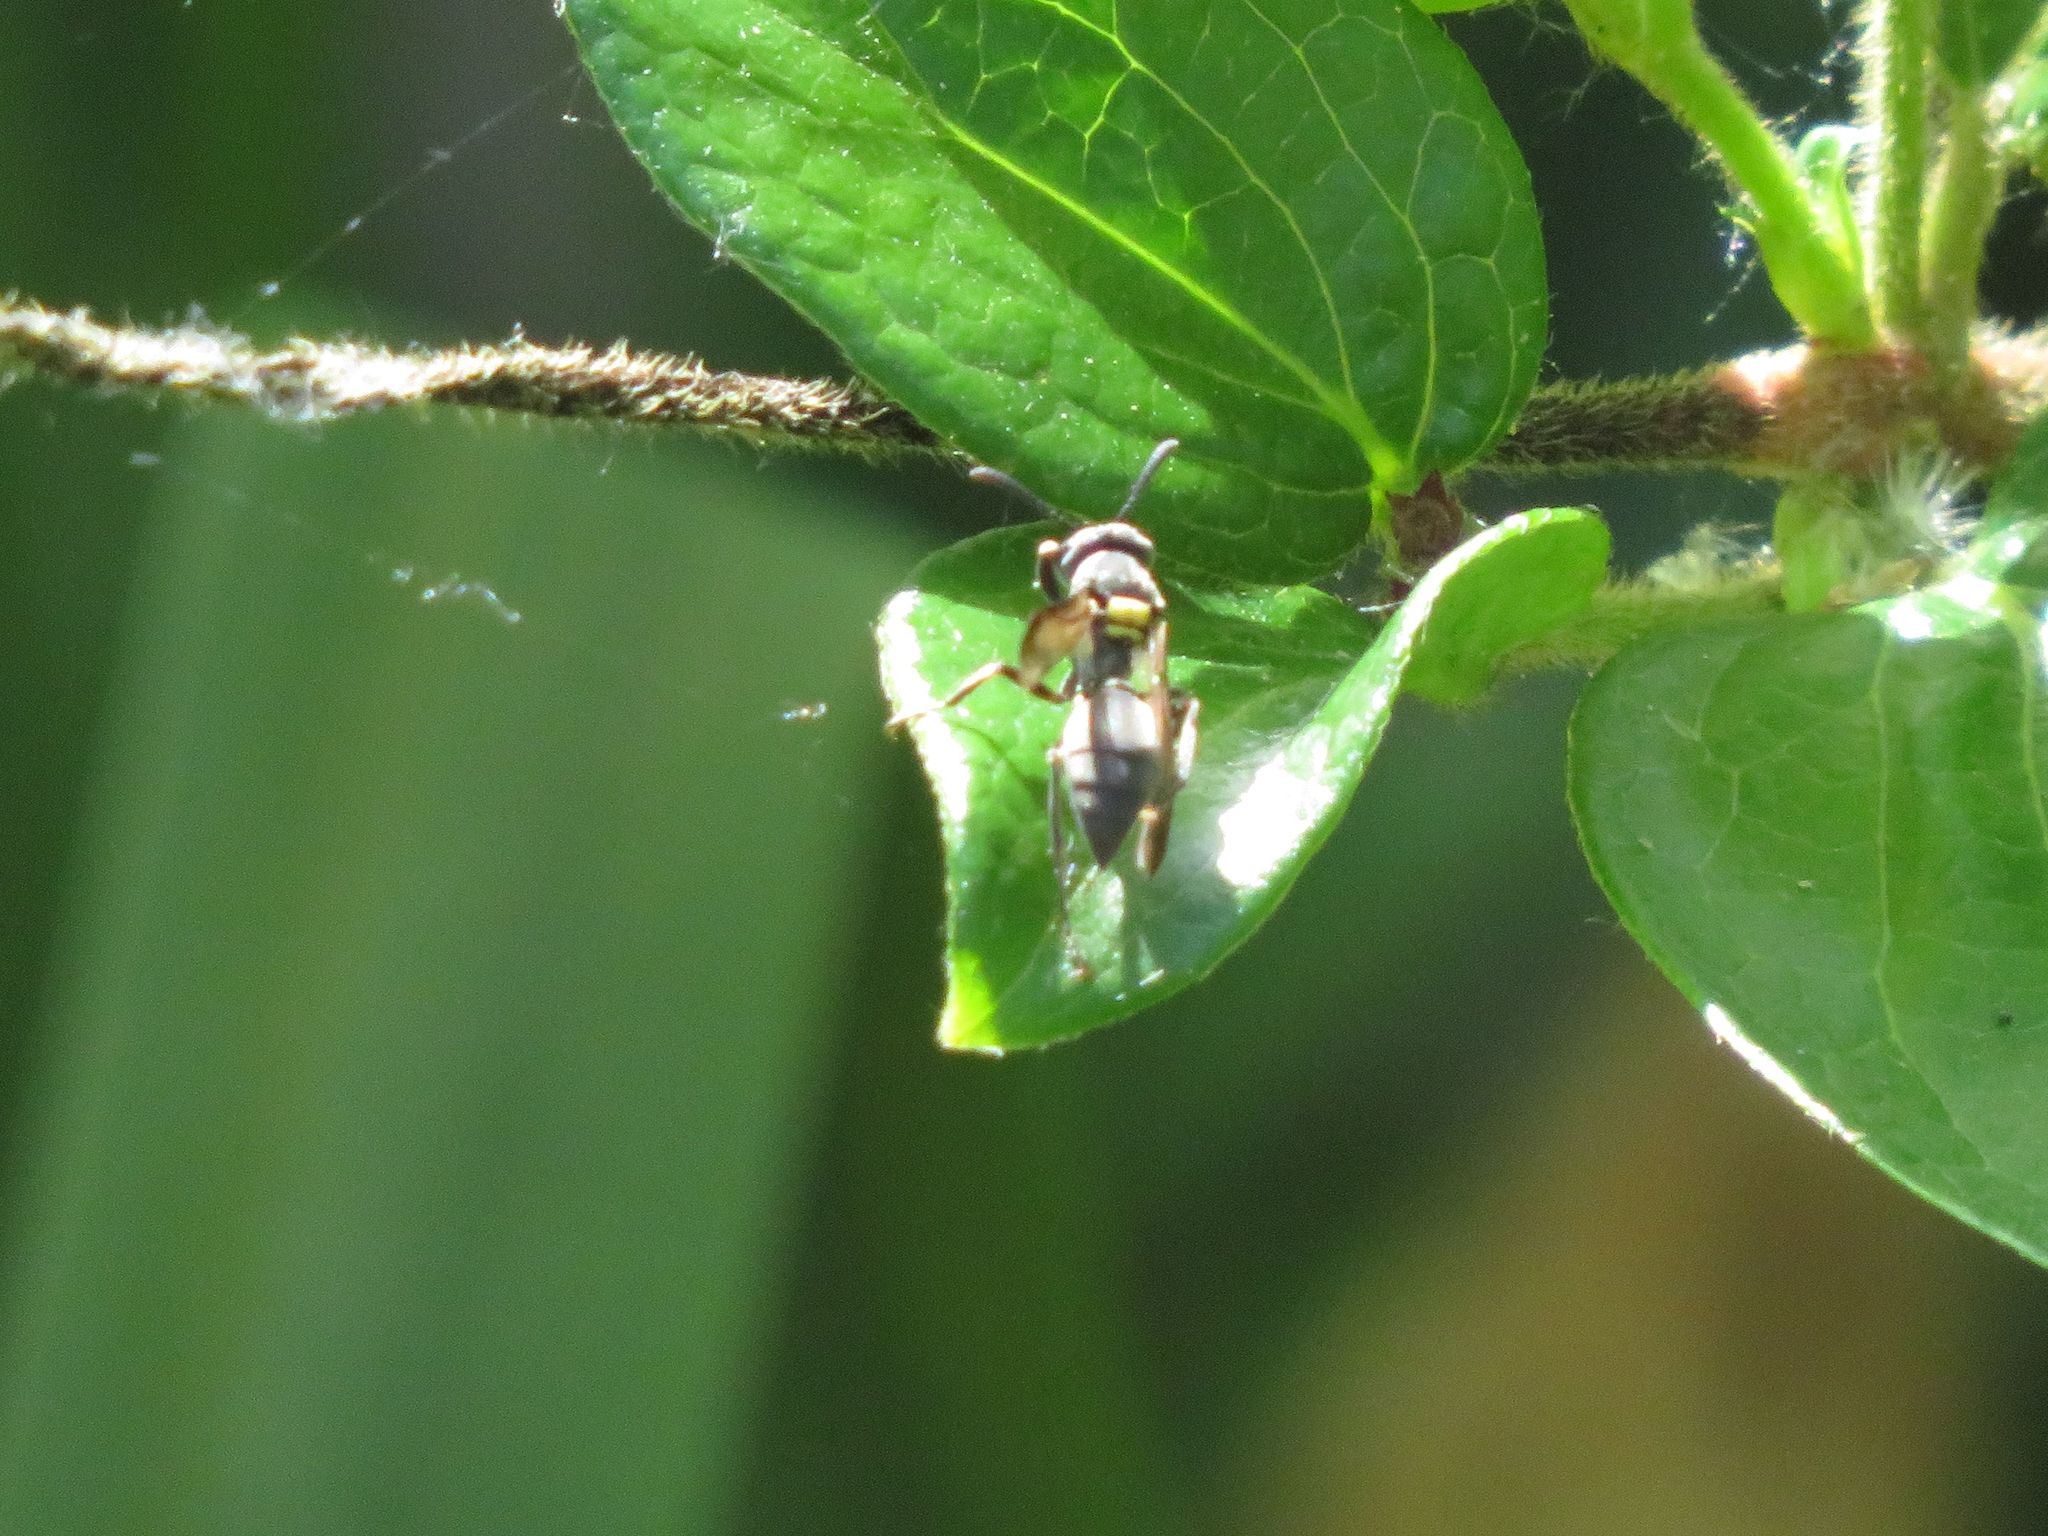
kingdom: Animalia
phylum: Arthropoda
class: Insecta
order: Hymenoptera
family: Eumenidae
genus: Polybia
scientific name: Polybia scutellaris
